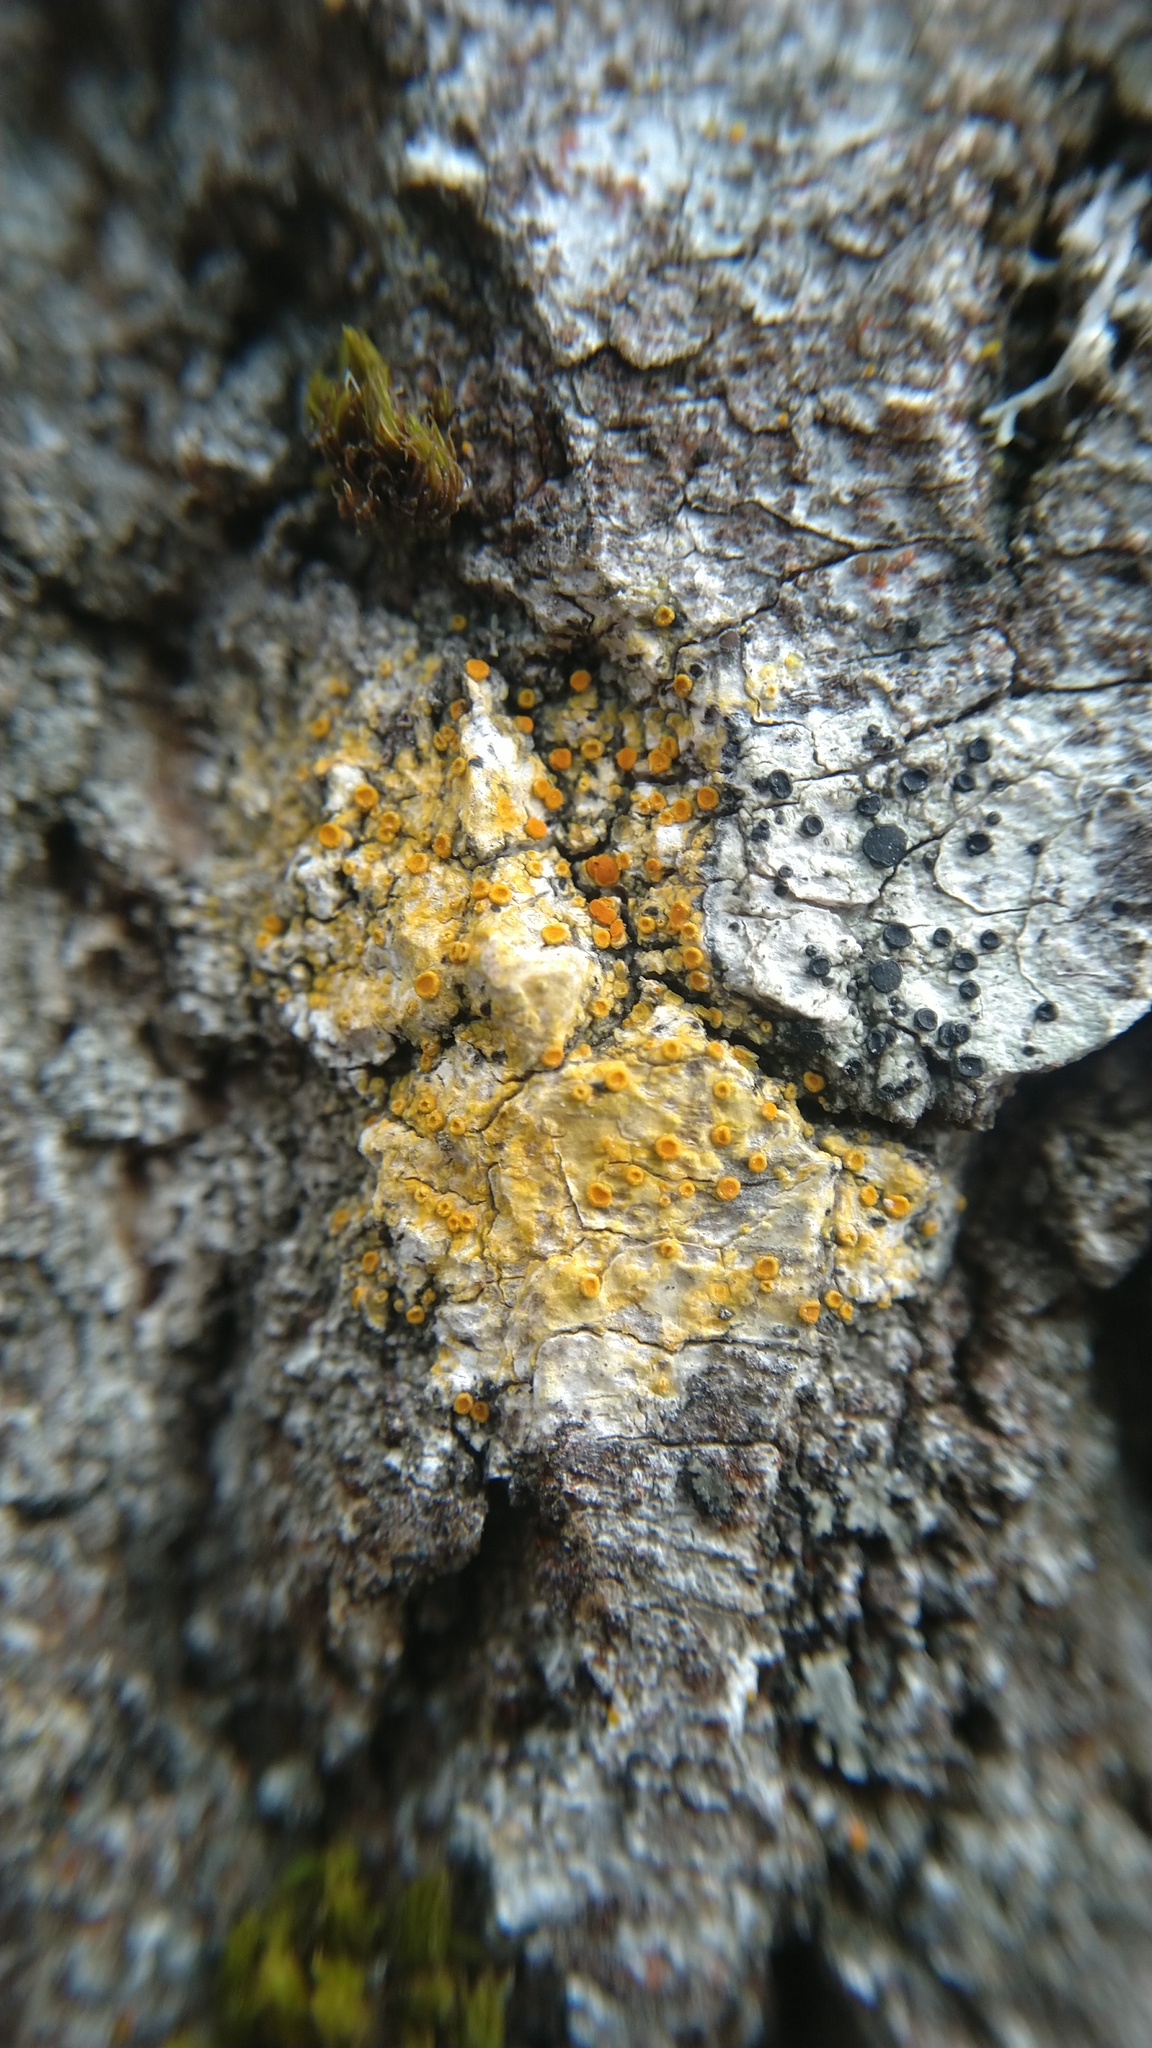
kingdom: Fungi
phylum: Ascomycota
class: Lecanoromycetes
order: Teloschistales
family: Teloschistaceae
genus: Opeltia
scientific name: Opeltia flavorubescens
